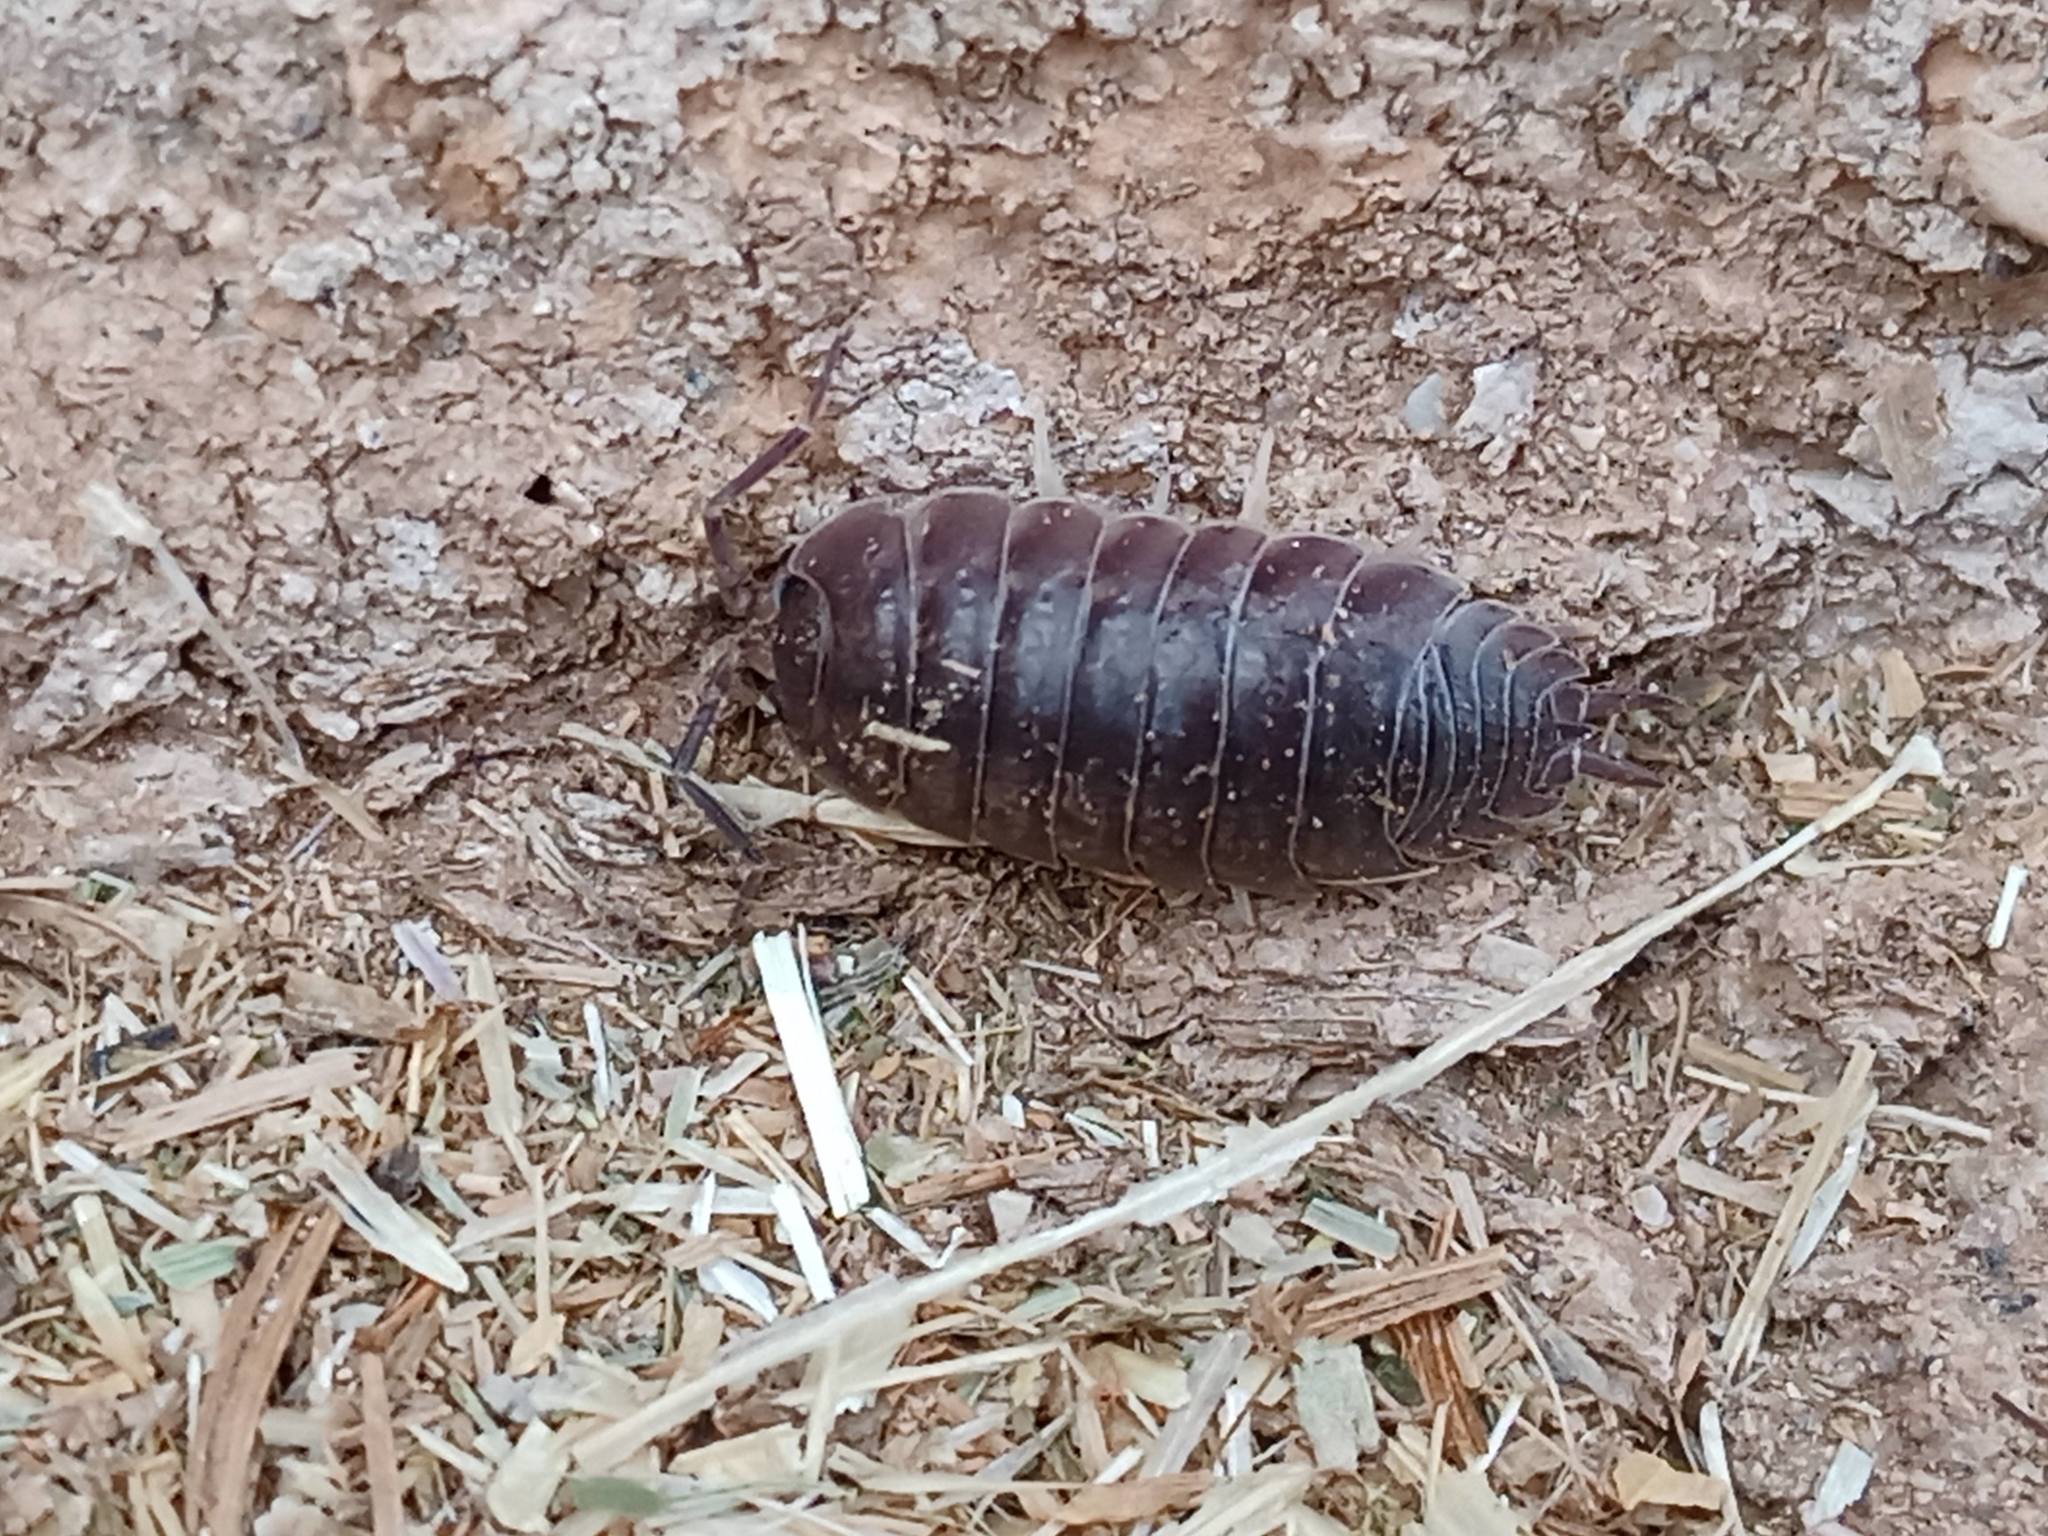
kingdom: Animalia
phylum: Arthropoda
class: Malacostraca
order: Isopoda
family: Porcellionidae
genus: Porcellio
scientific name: Porcellio laevis
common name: Swift woodlouse
